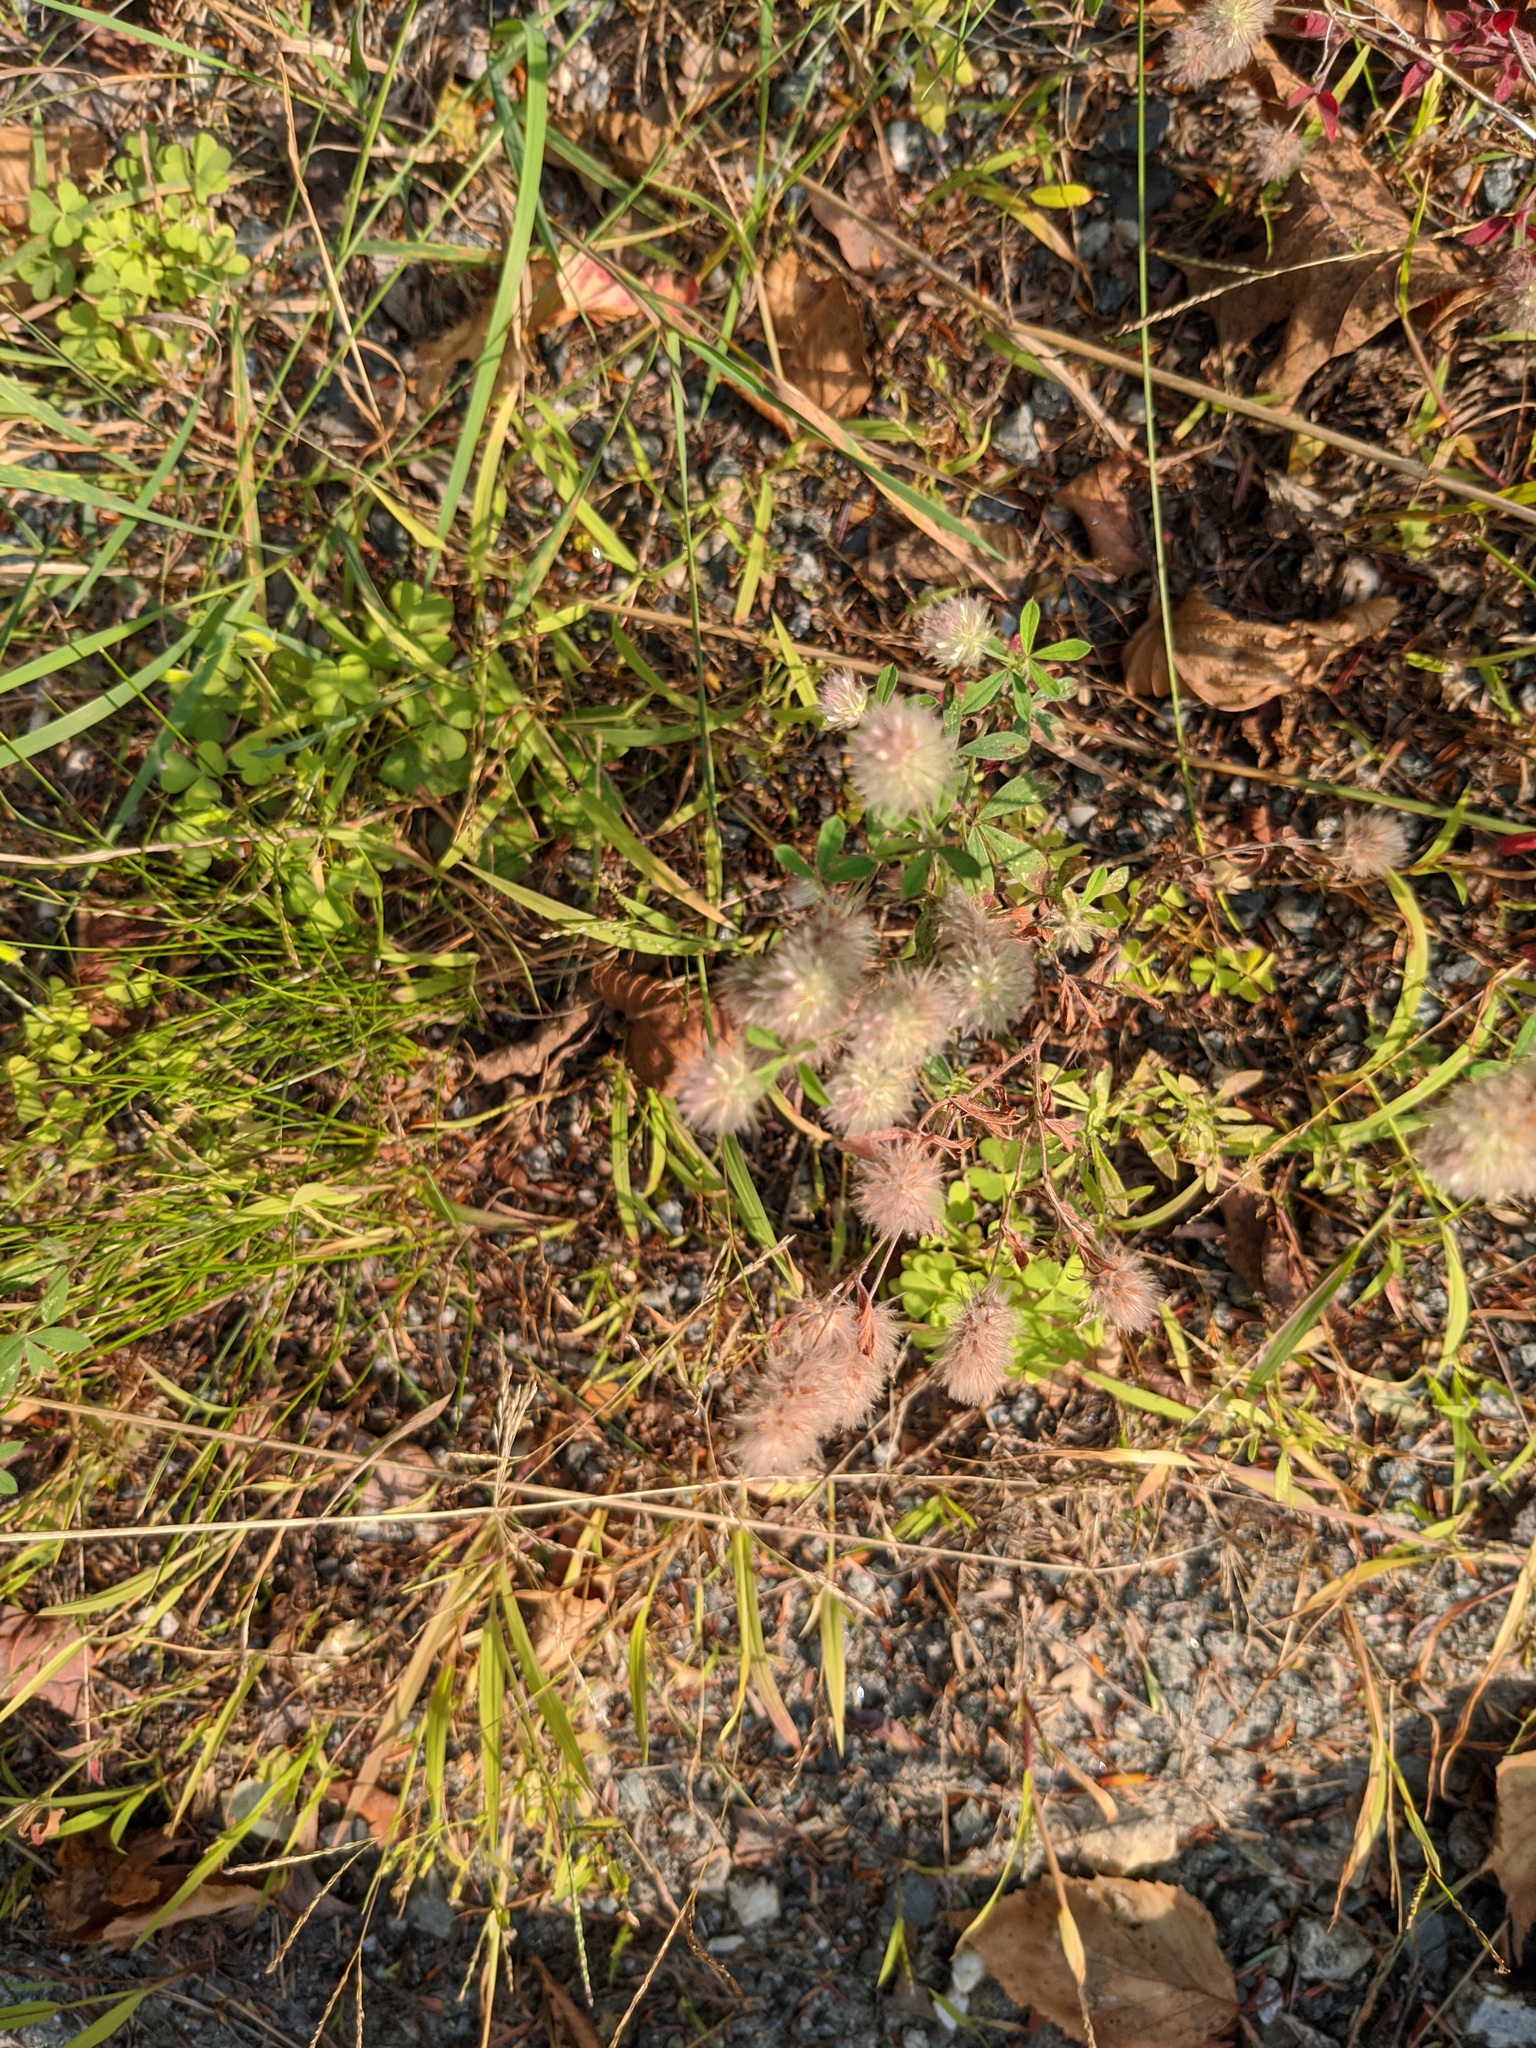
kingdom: Plantae
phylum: Tracheophyta
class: Magnoliopsida
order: Fabales
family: Fabaceae
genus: Trifolium
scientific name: Trifolium arvense
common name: Hare's-foot clover
